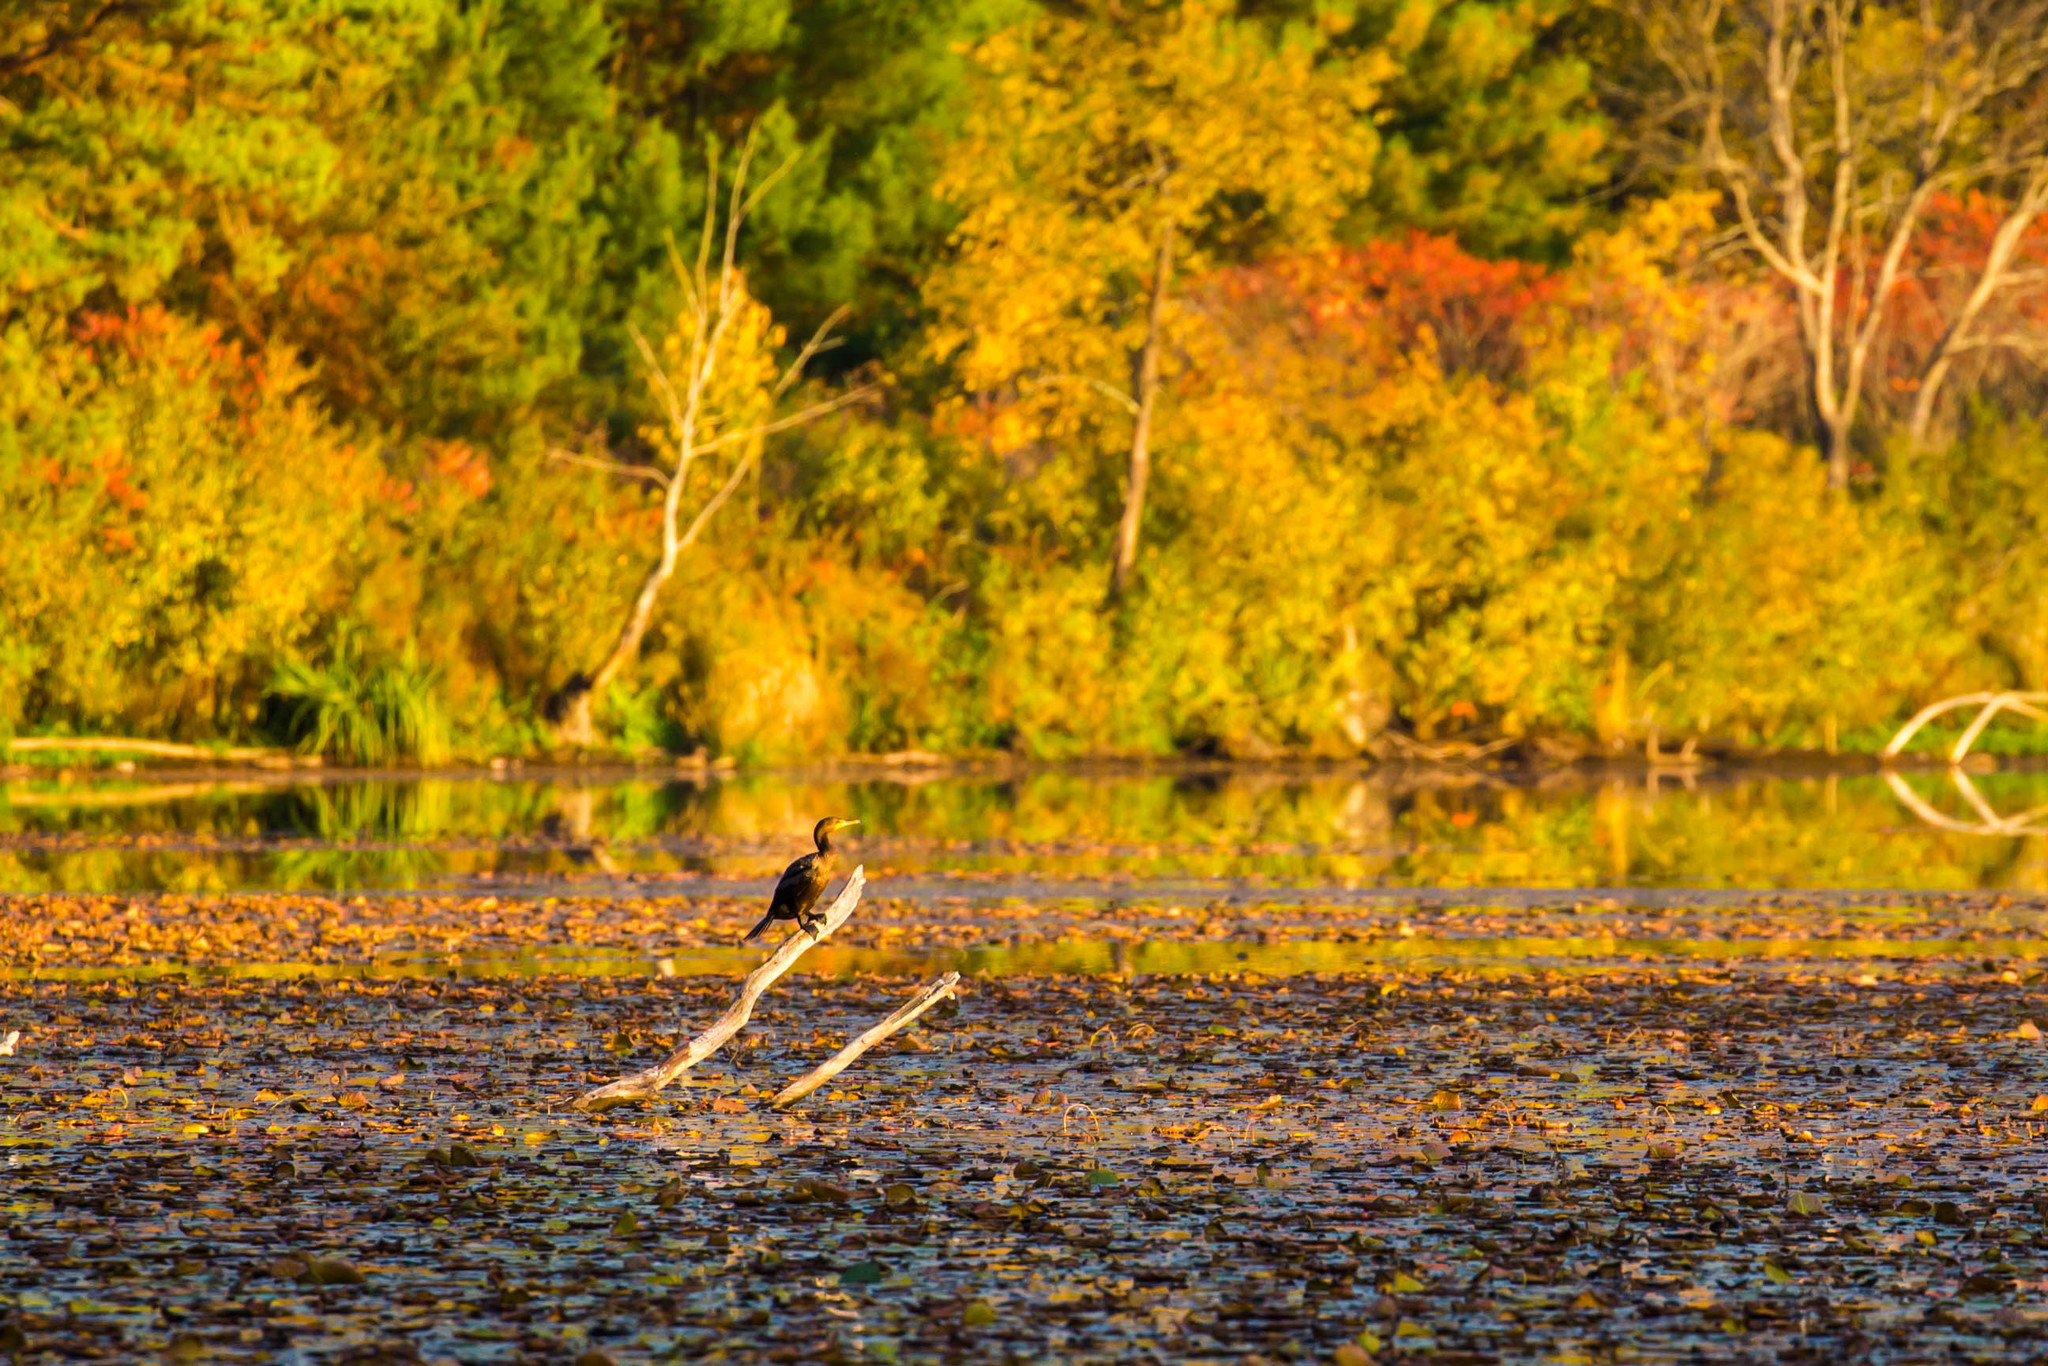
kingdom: Animalia
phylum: Chordata
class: Aves
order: Suliformes
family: Phalacrocoracidae
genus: Phalacrocorax
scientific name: Phalacrocorax auritus
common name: Double-crested cormorant
